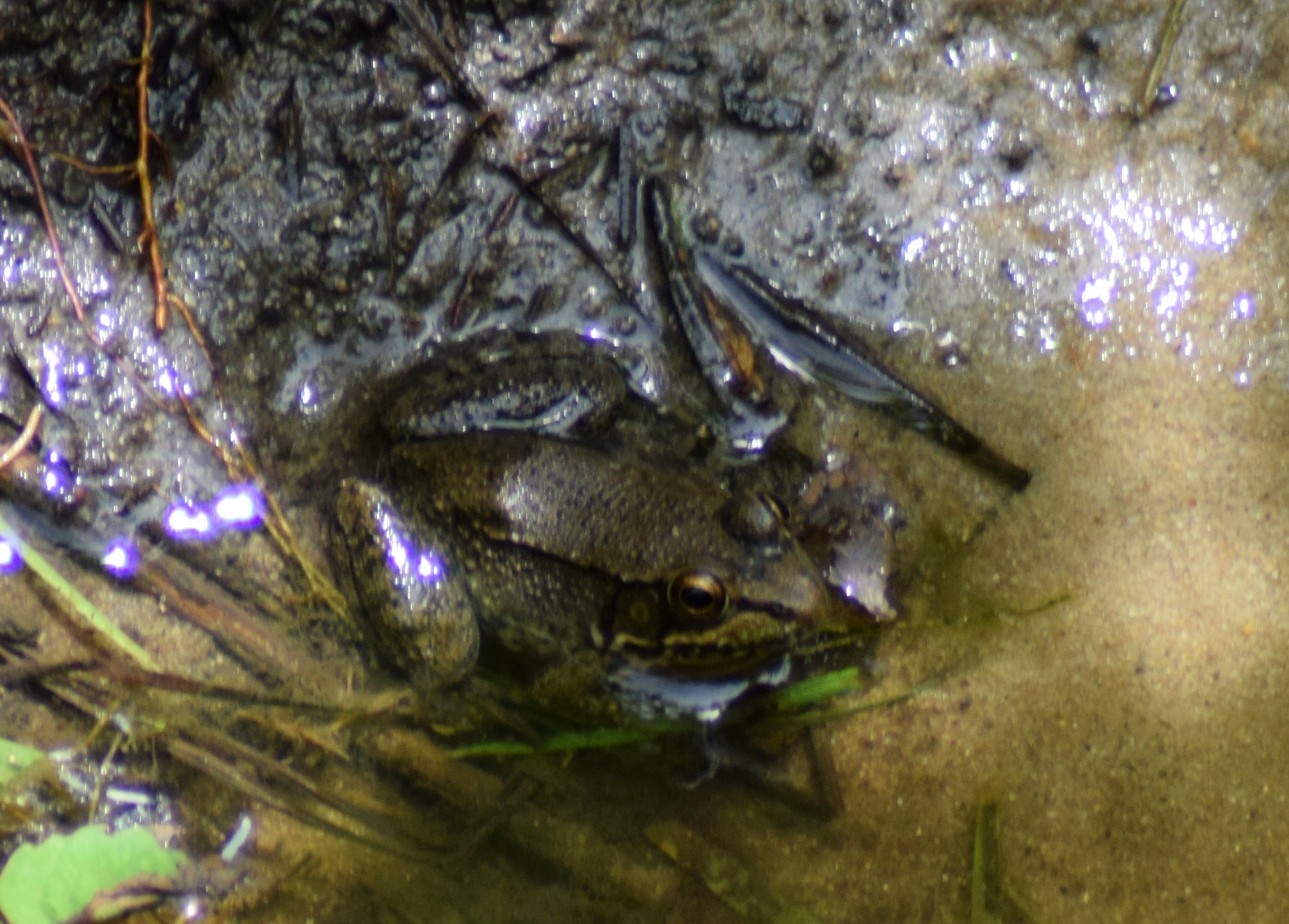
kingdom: Animalia
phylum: Chordata
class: Amphibia
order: Anura
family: Ranidae
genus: Lithobates
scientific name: Lithobates clamitans
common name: Green frog
